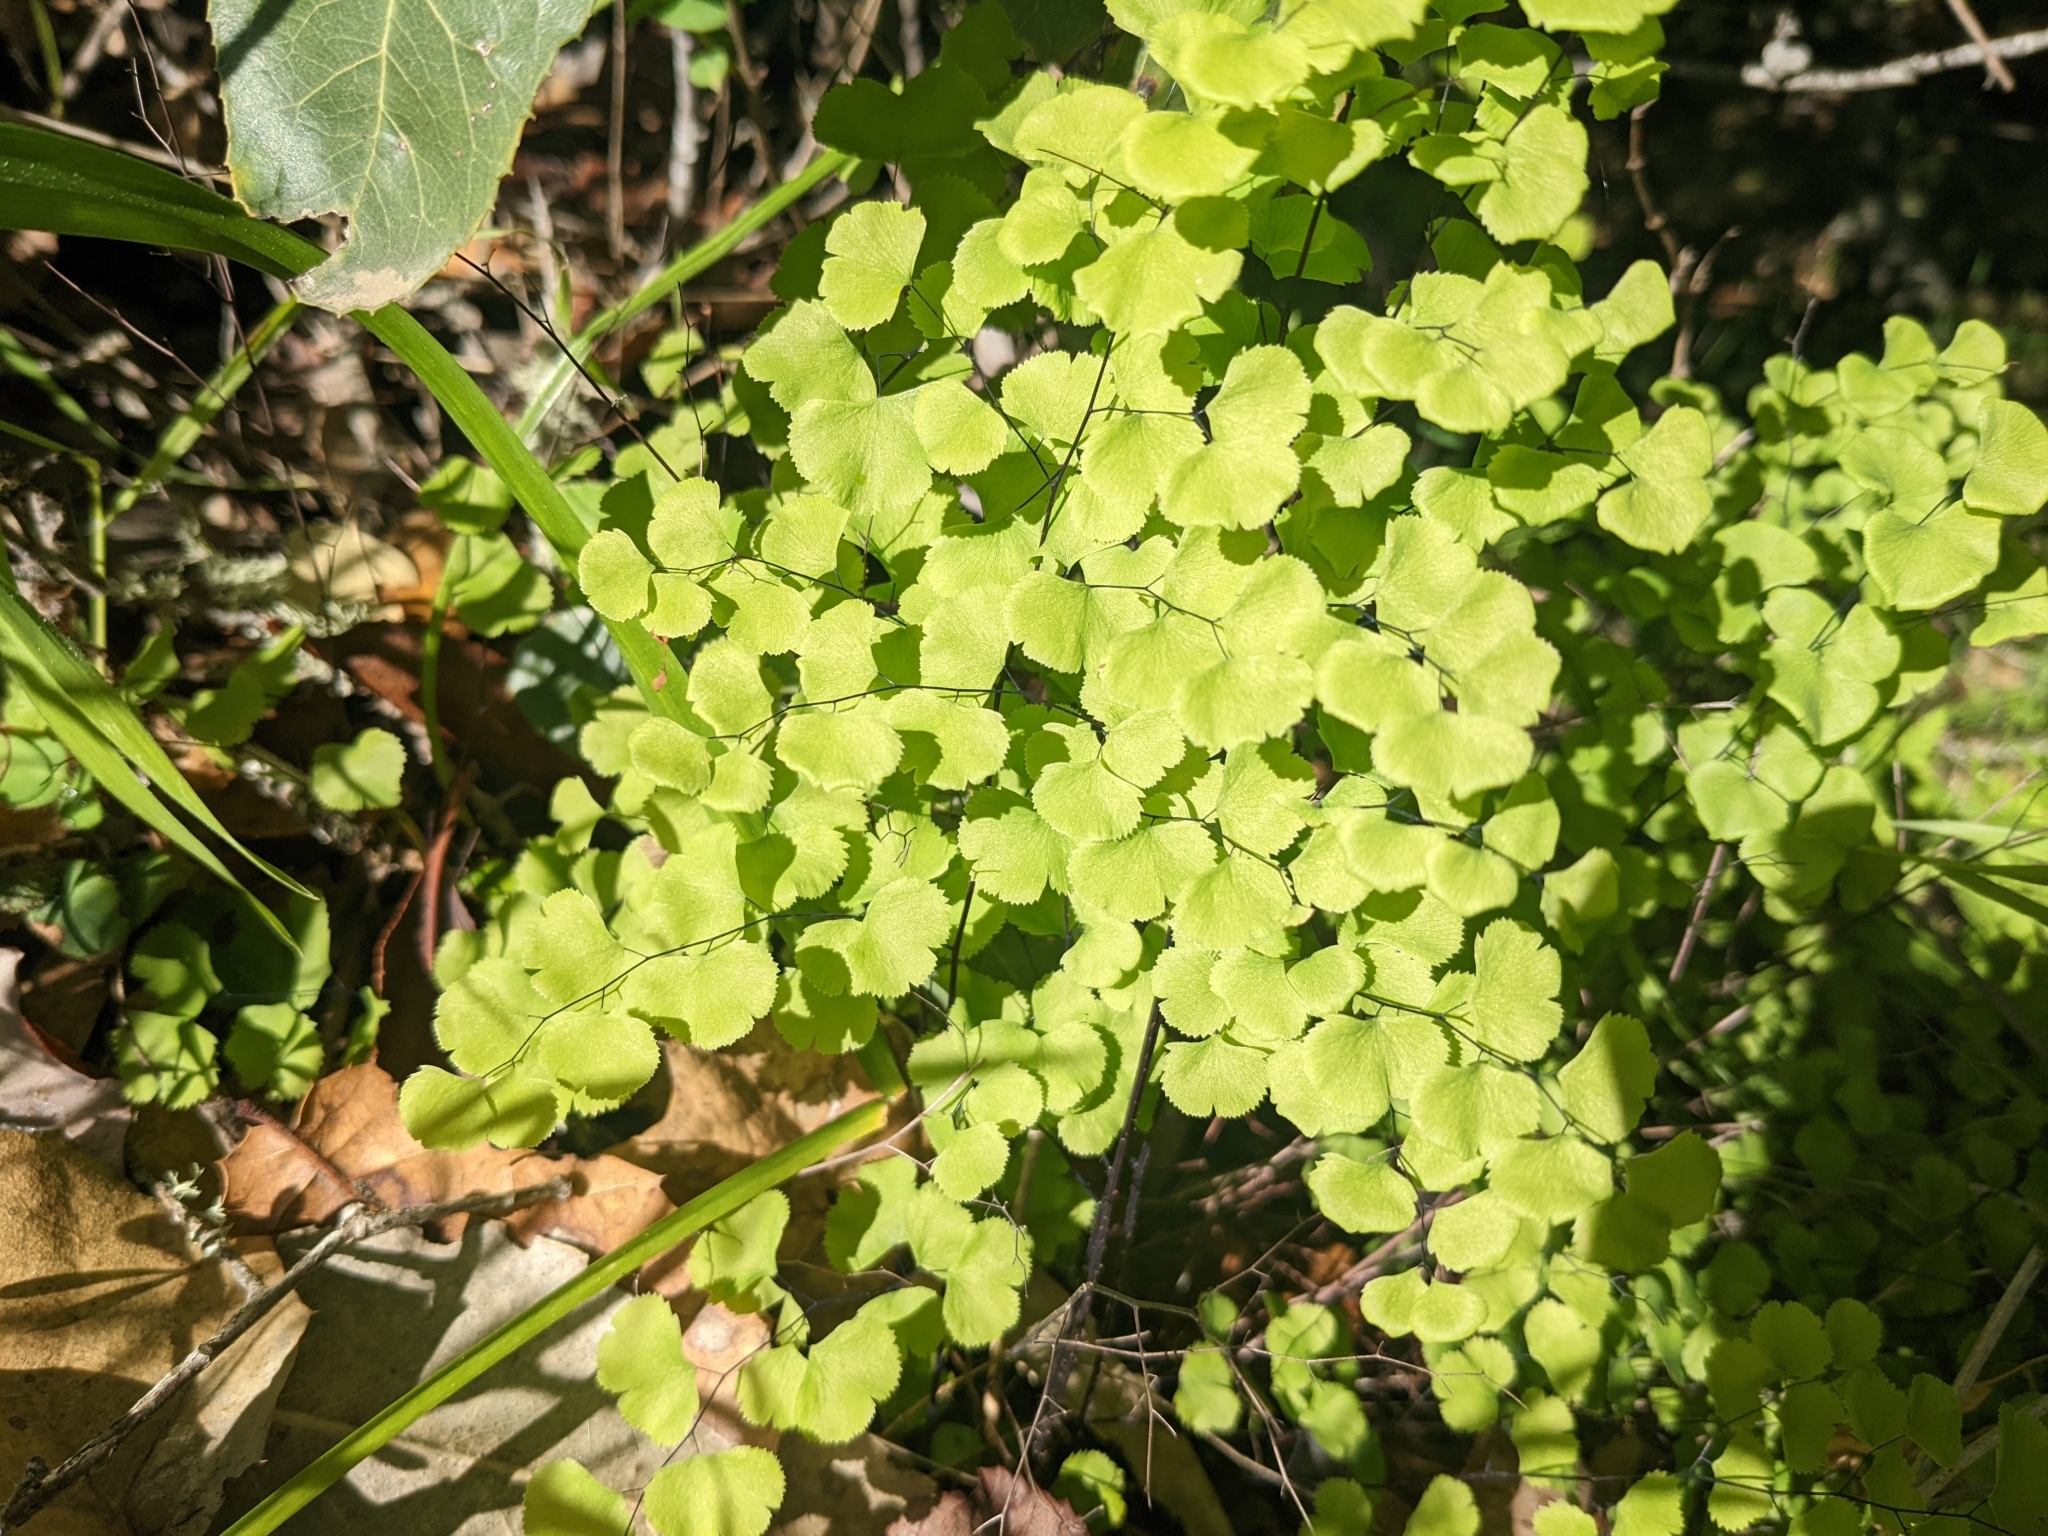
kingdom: Plantae
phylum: Tracheophyta
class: Polypodiopsida
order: Polypodiales
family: Pteridaceae
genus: Adiantum
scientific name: Adiantum jordanii
